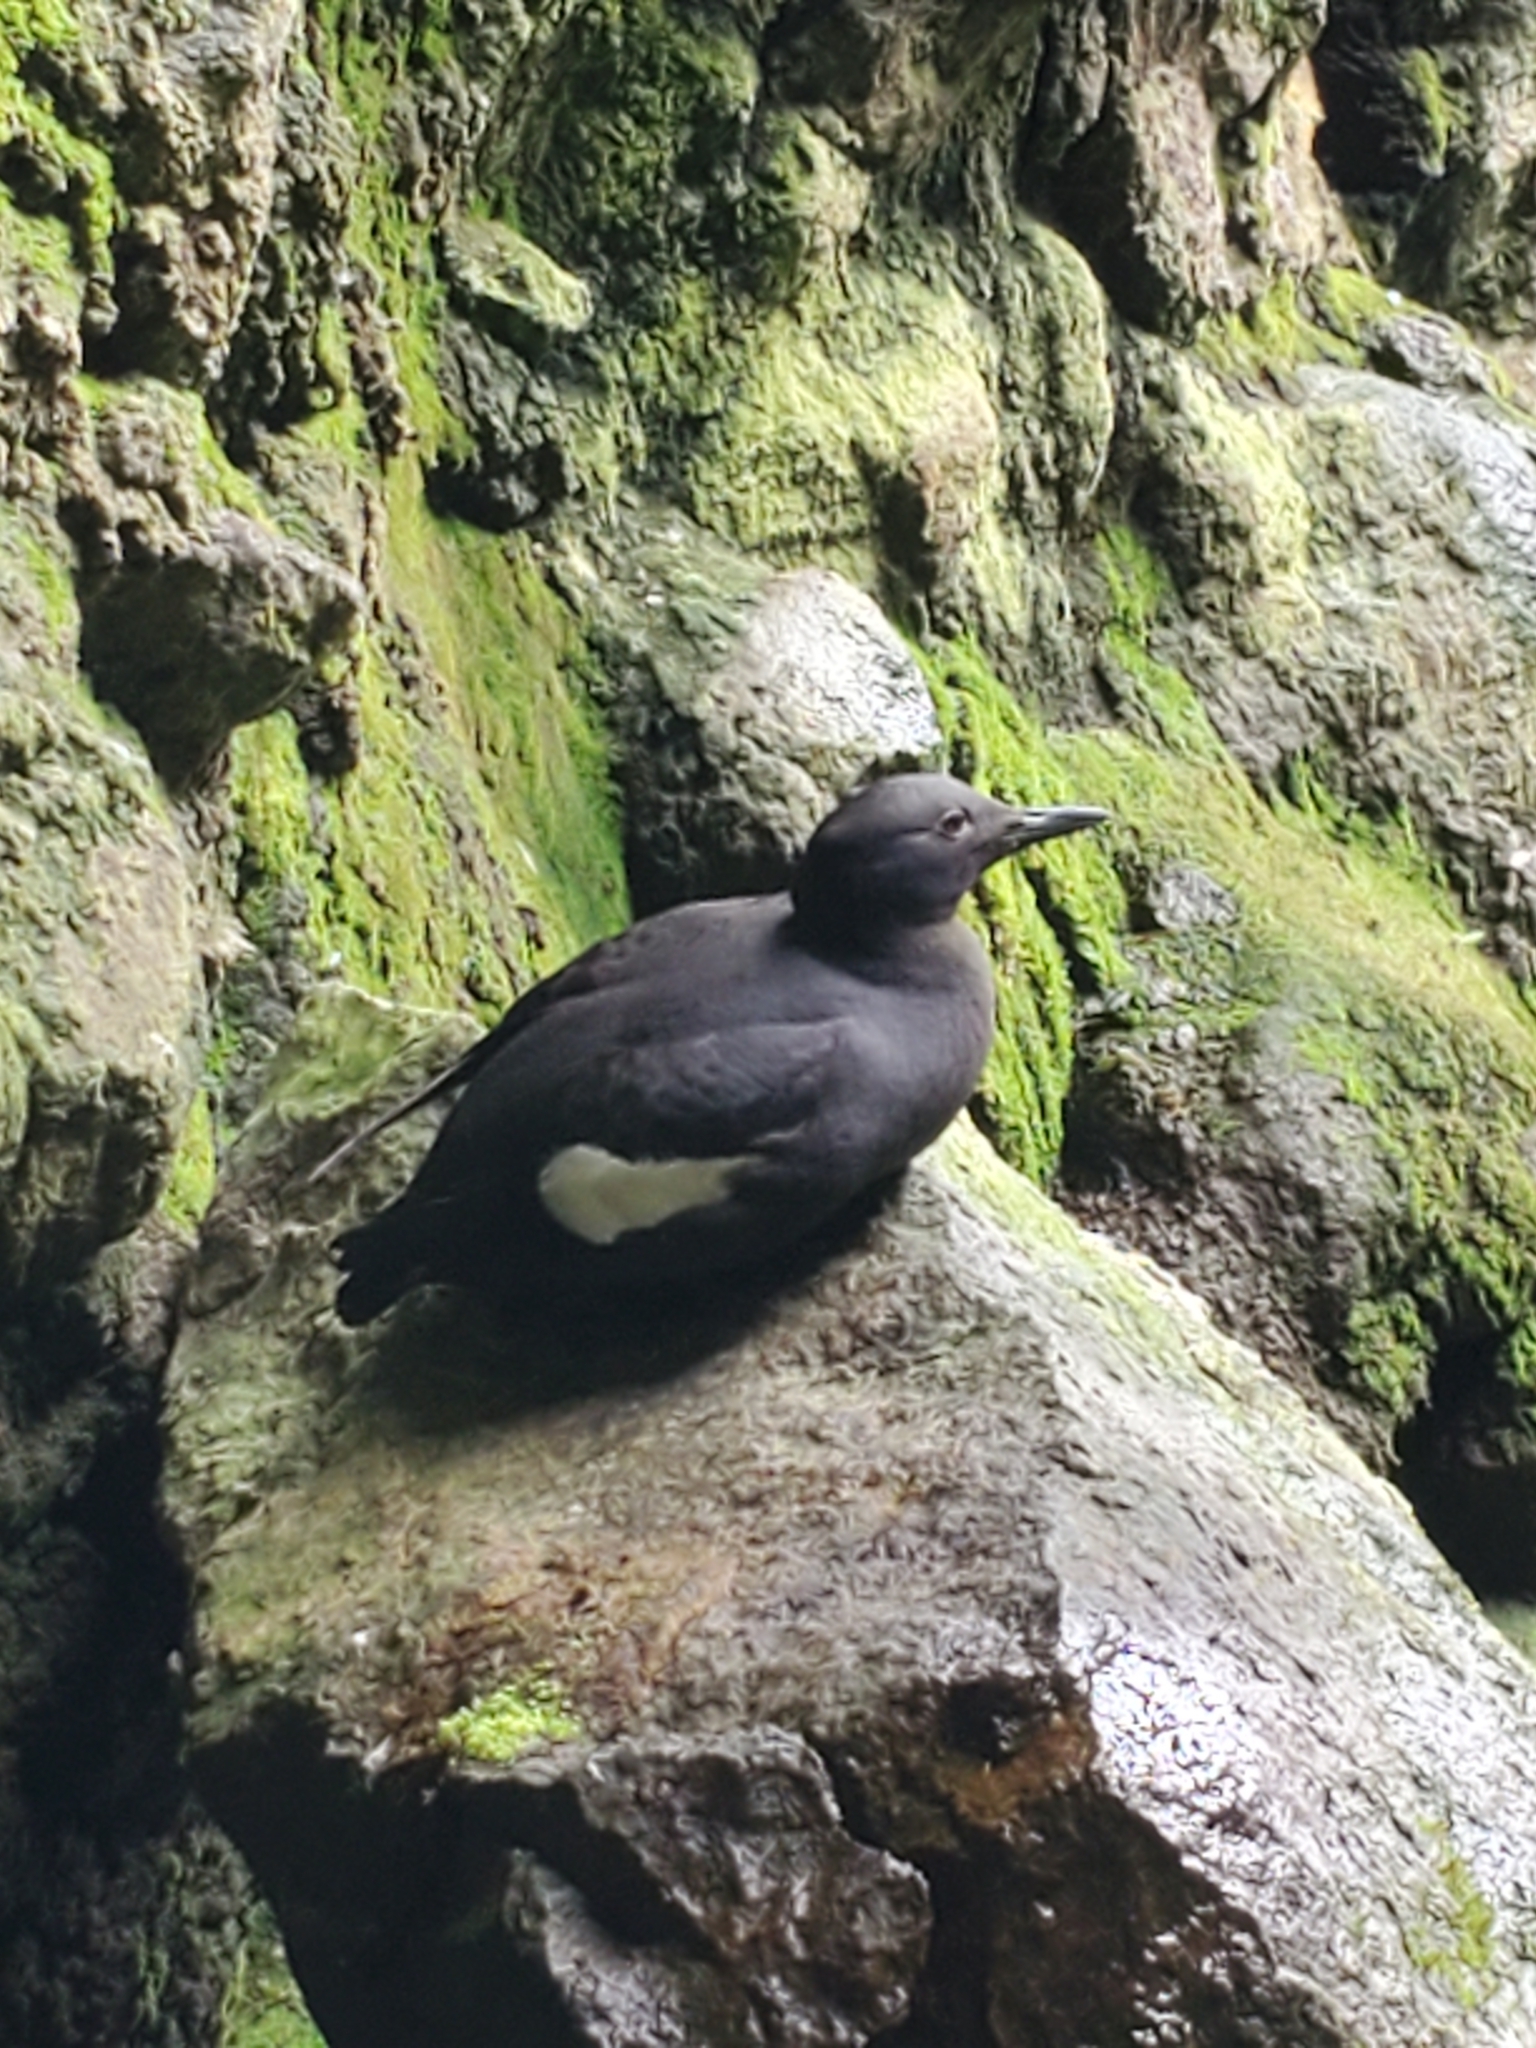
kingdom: Animalia
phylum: Chordata
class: Aves
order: Charadriiformes
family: Alcidae
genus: Cepphus
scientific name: Cepphus columba
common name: Pigeon guillemot
